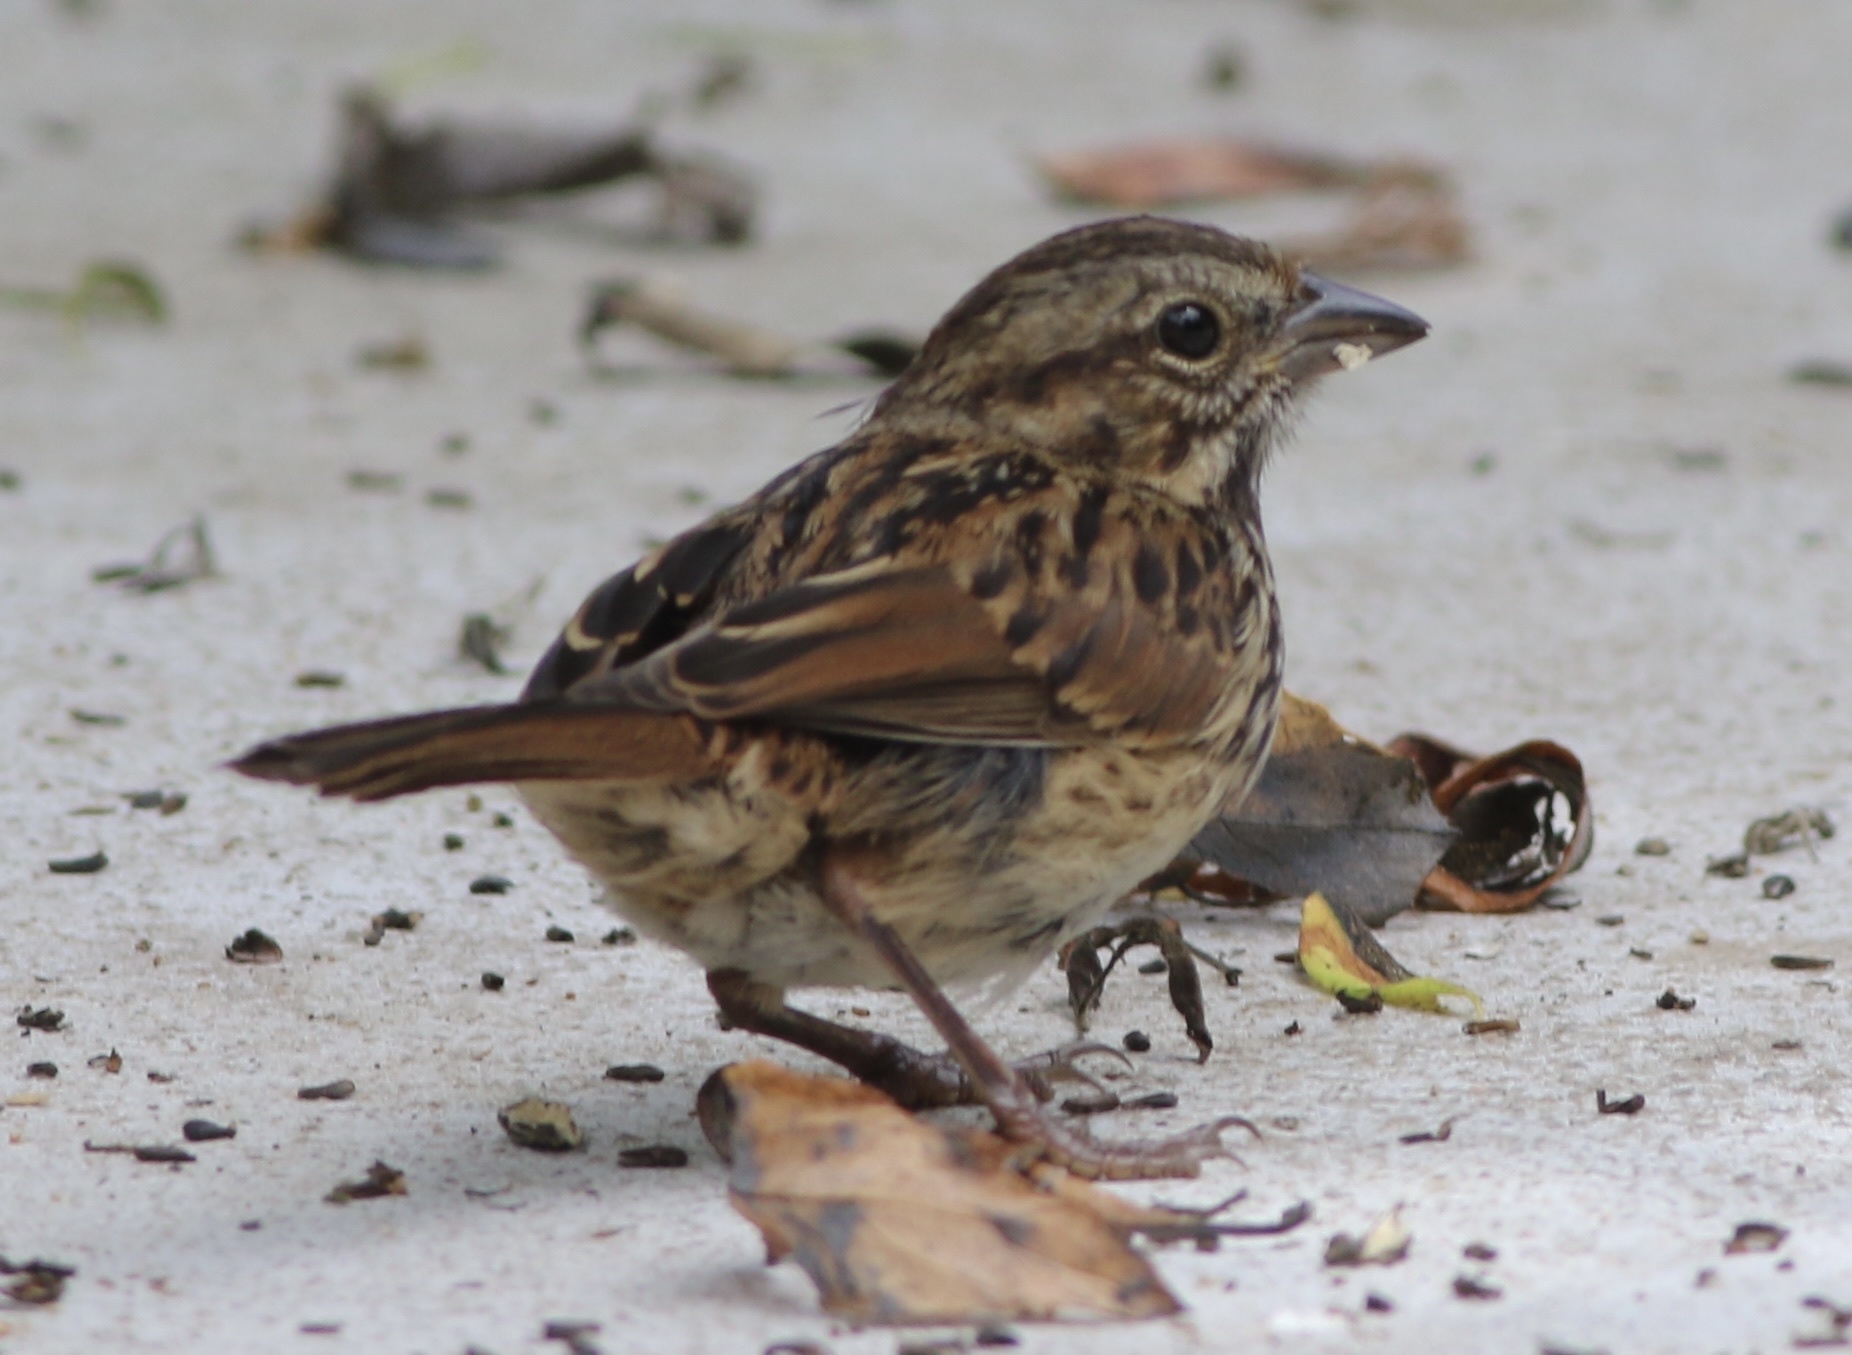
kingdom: Animalia
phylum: Chordata
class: Aves
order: Passeriformes
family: Passerellidae
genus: Melospiza
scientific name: Melospiza melodia
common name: Song sparrow
